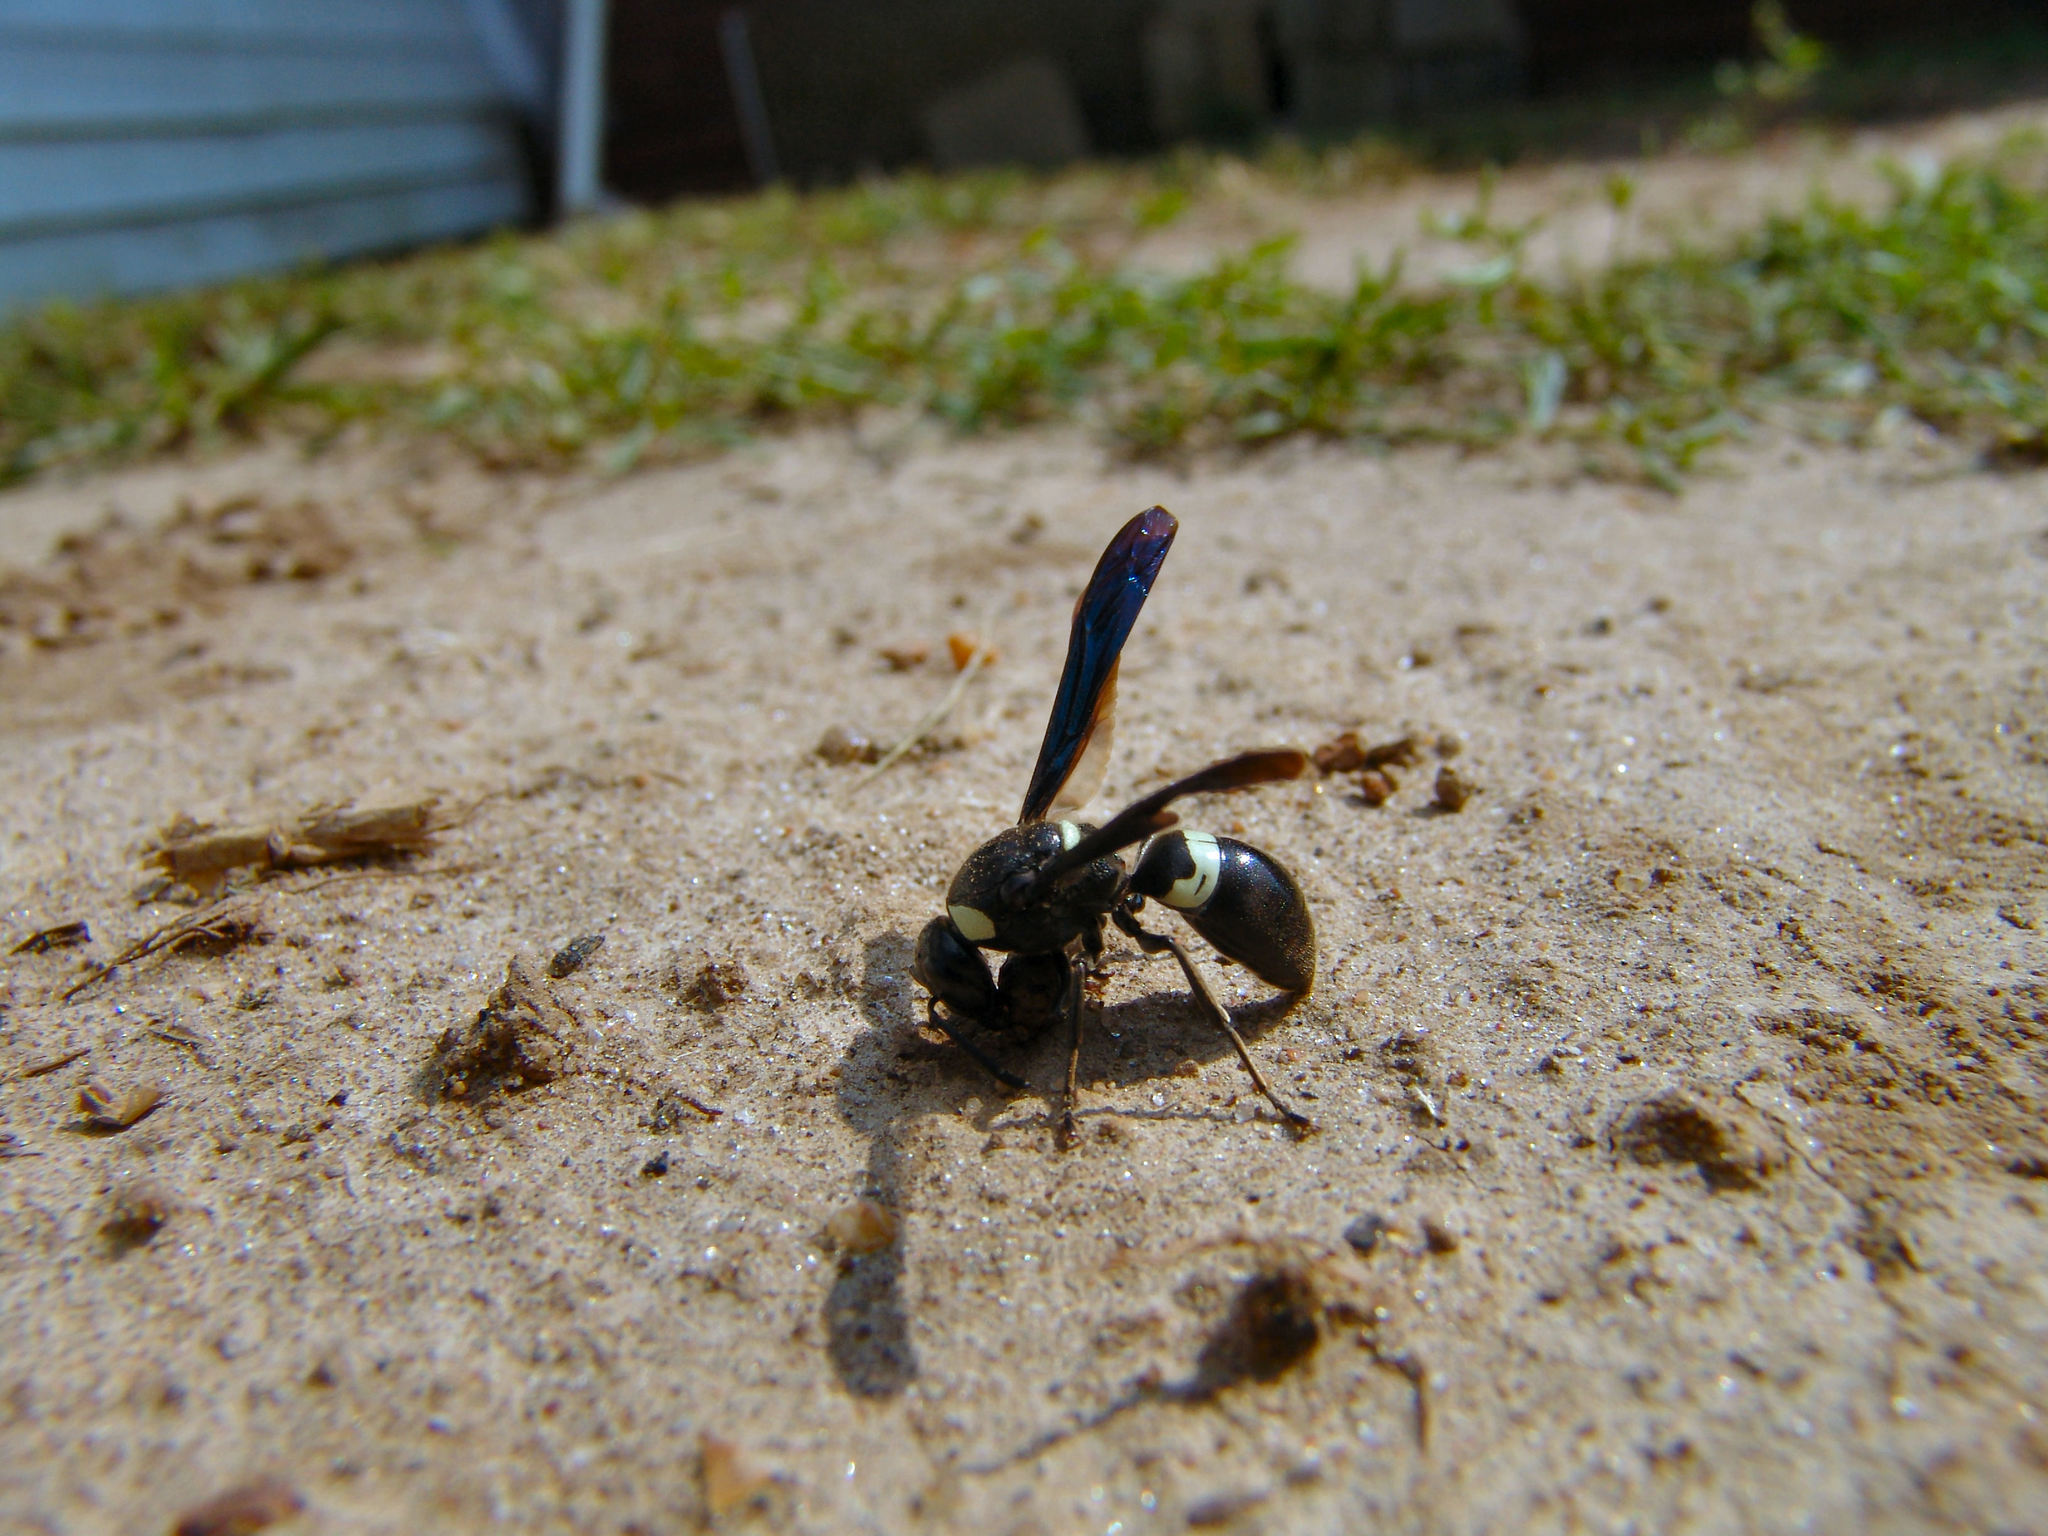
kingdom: Animalia
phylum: Arthropoda
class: Insecta
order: Hymenoptera
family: Eumenidae
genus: Monobia
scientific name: Monobia quadridens
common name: Four-toothed mason wasp
